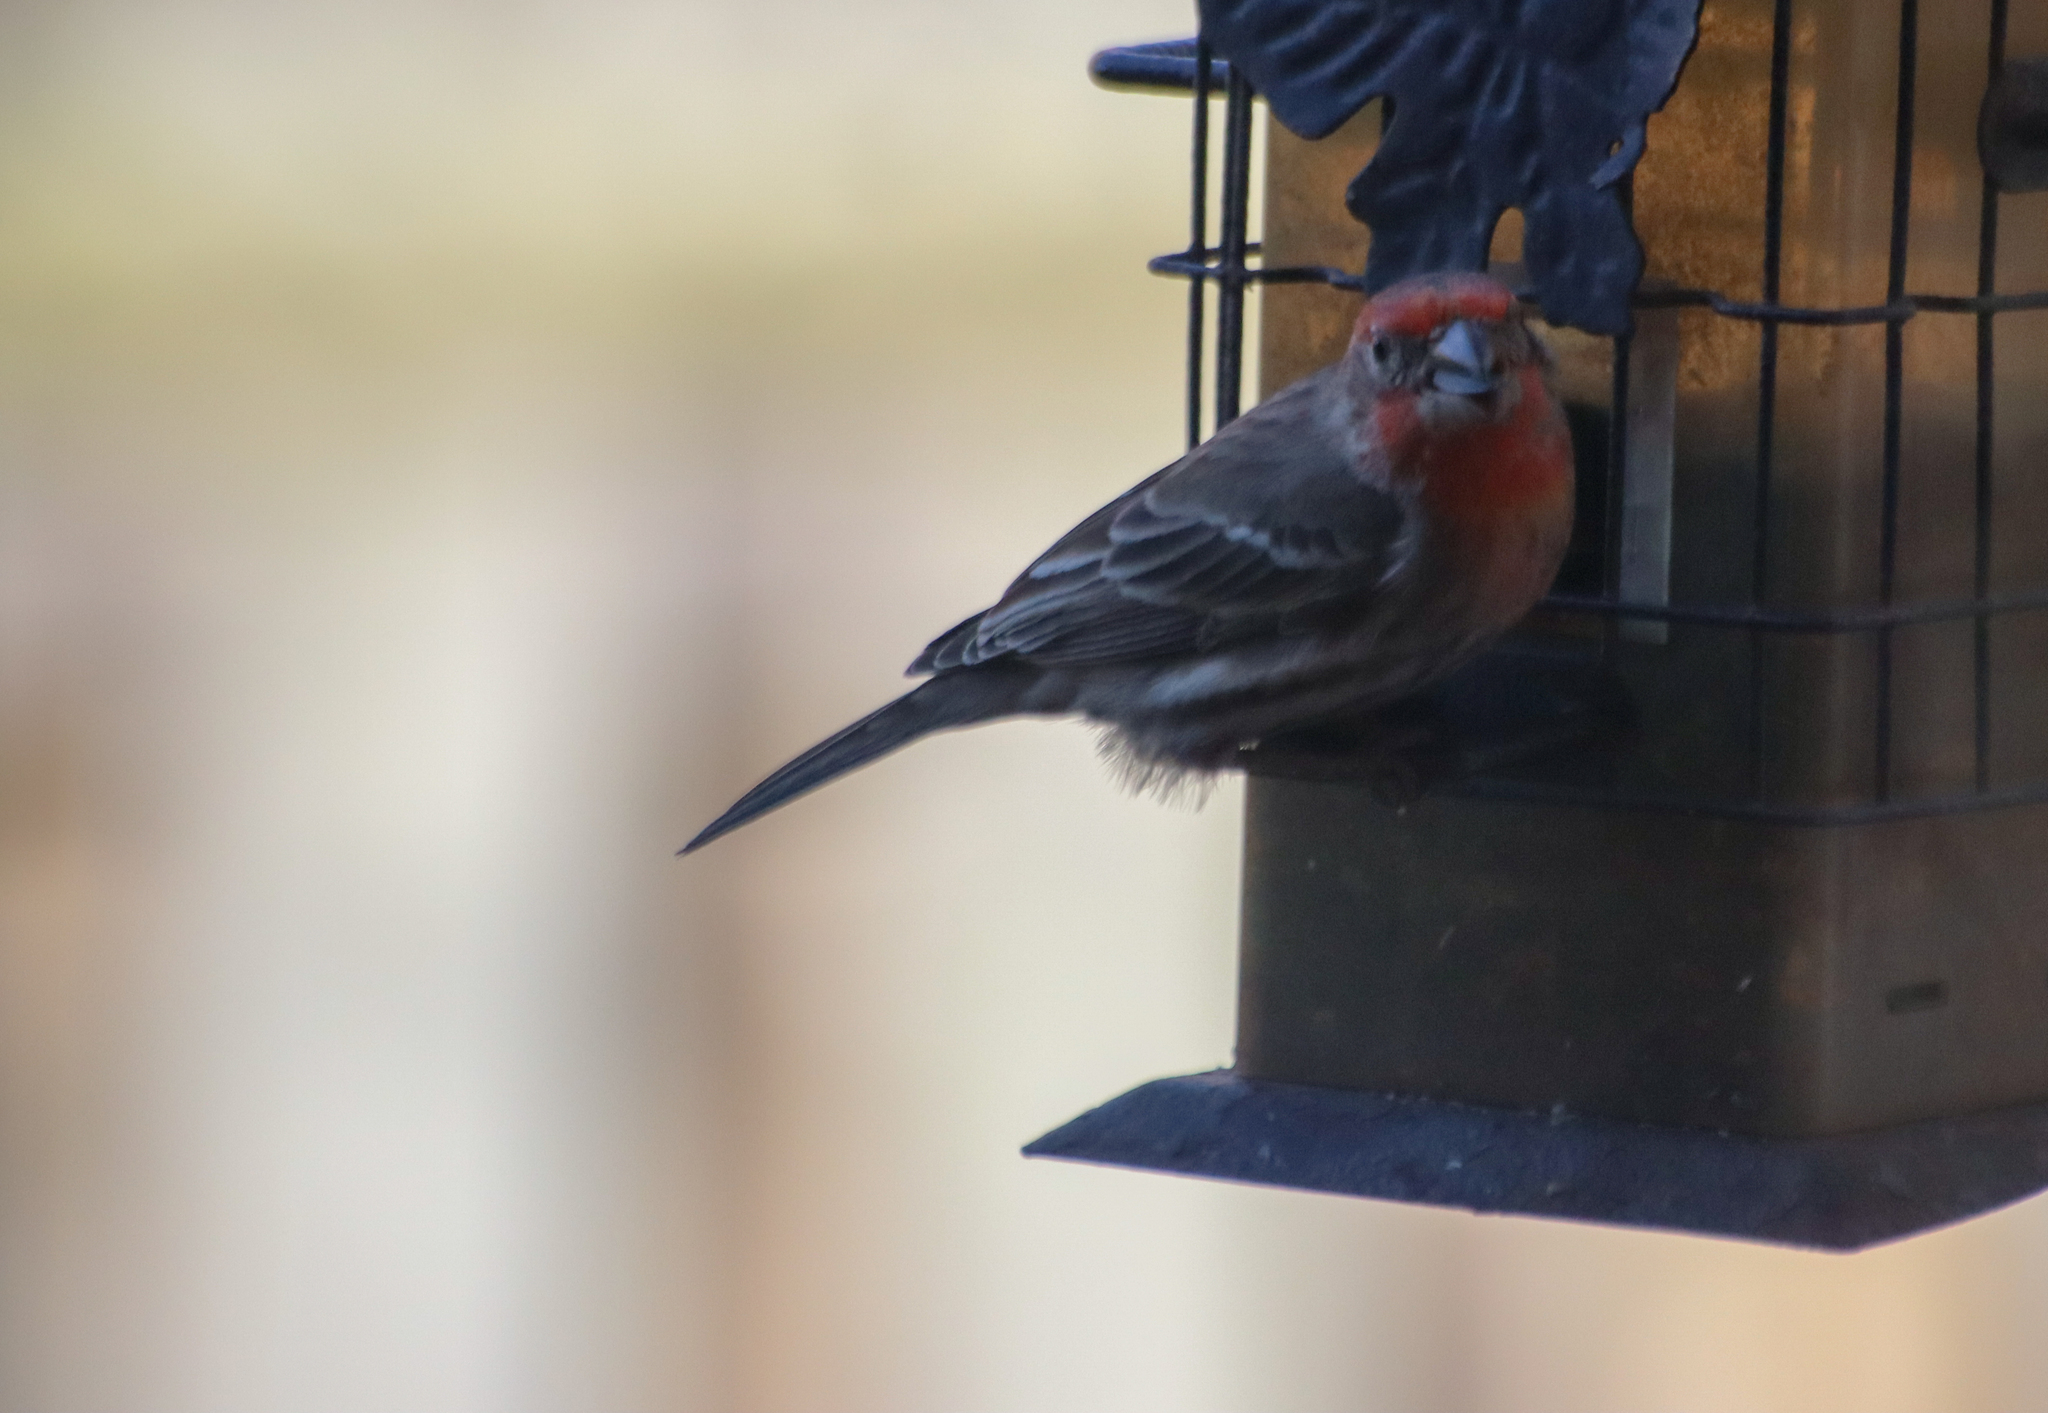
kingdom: Animalia
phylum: Chordata
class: Aves
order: Passeriformes
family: Fringillidae
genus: Haemorhous
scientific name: Haemorhous mexicanus
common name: House finch
